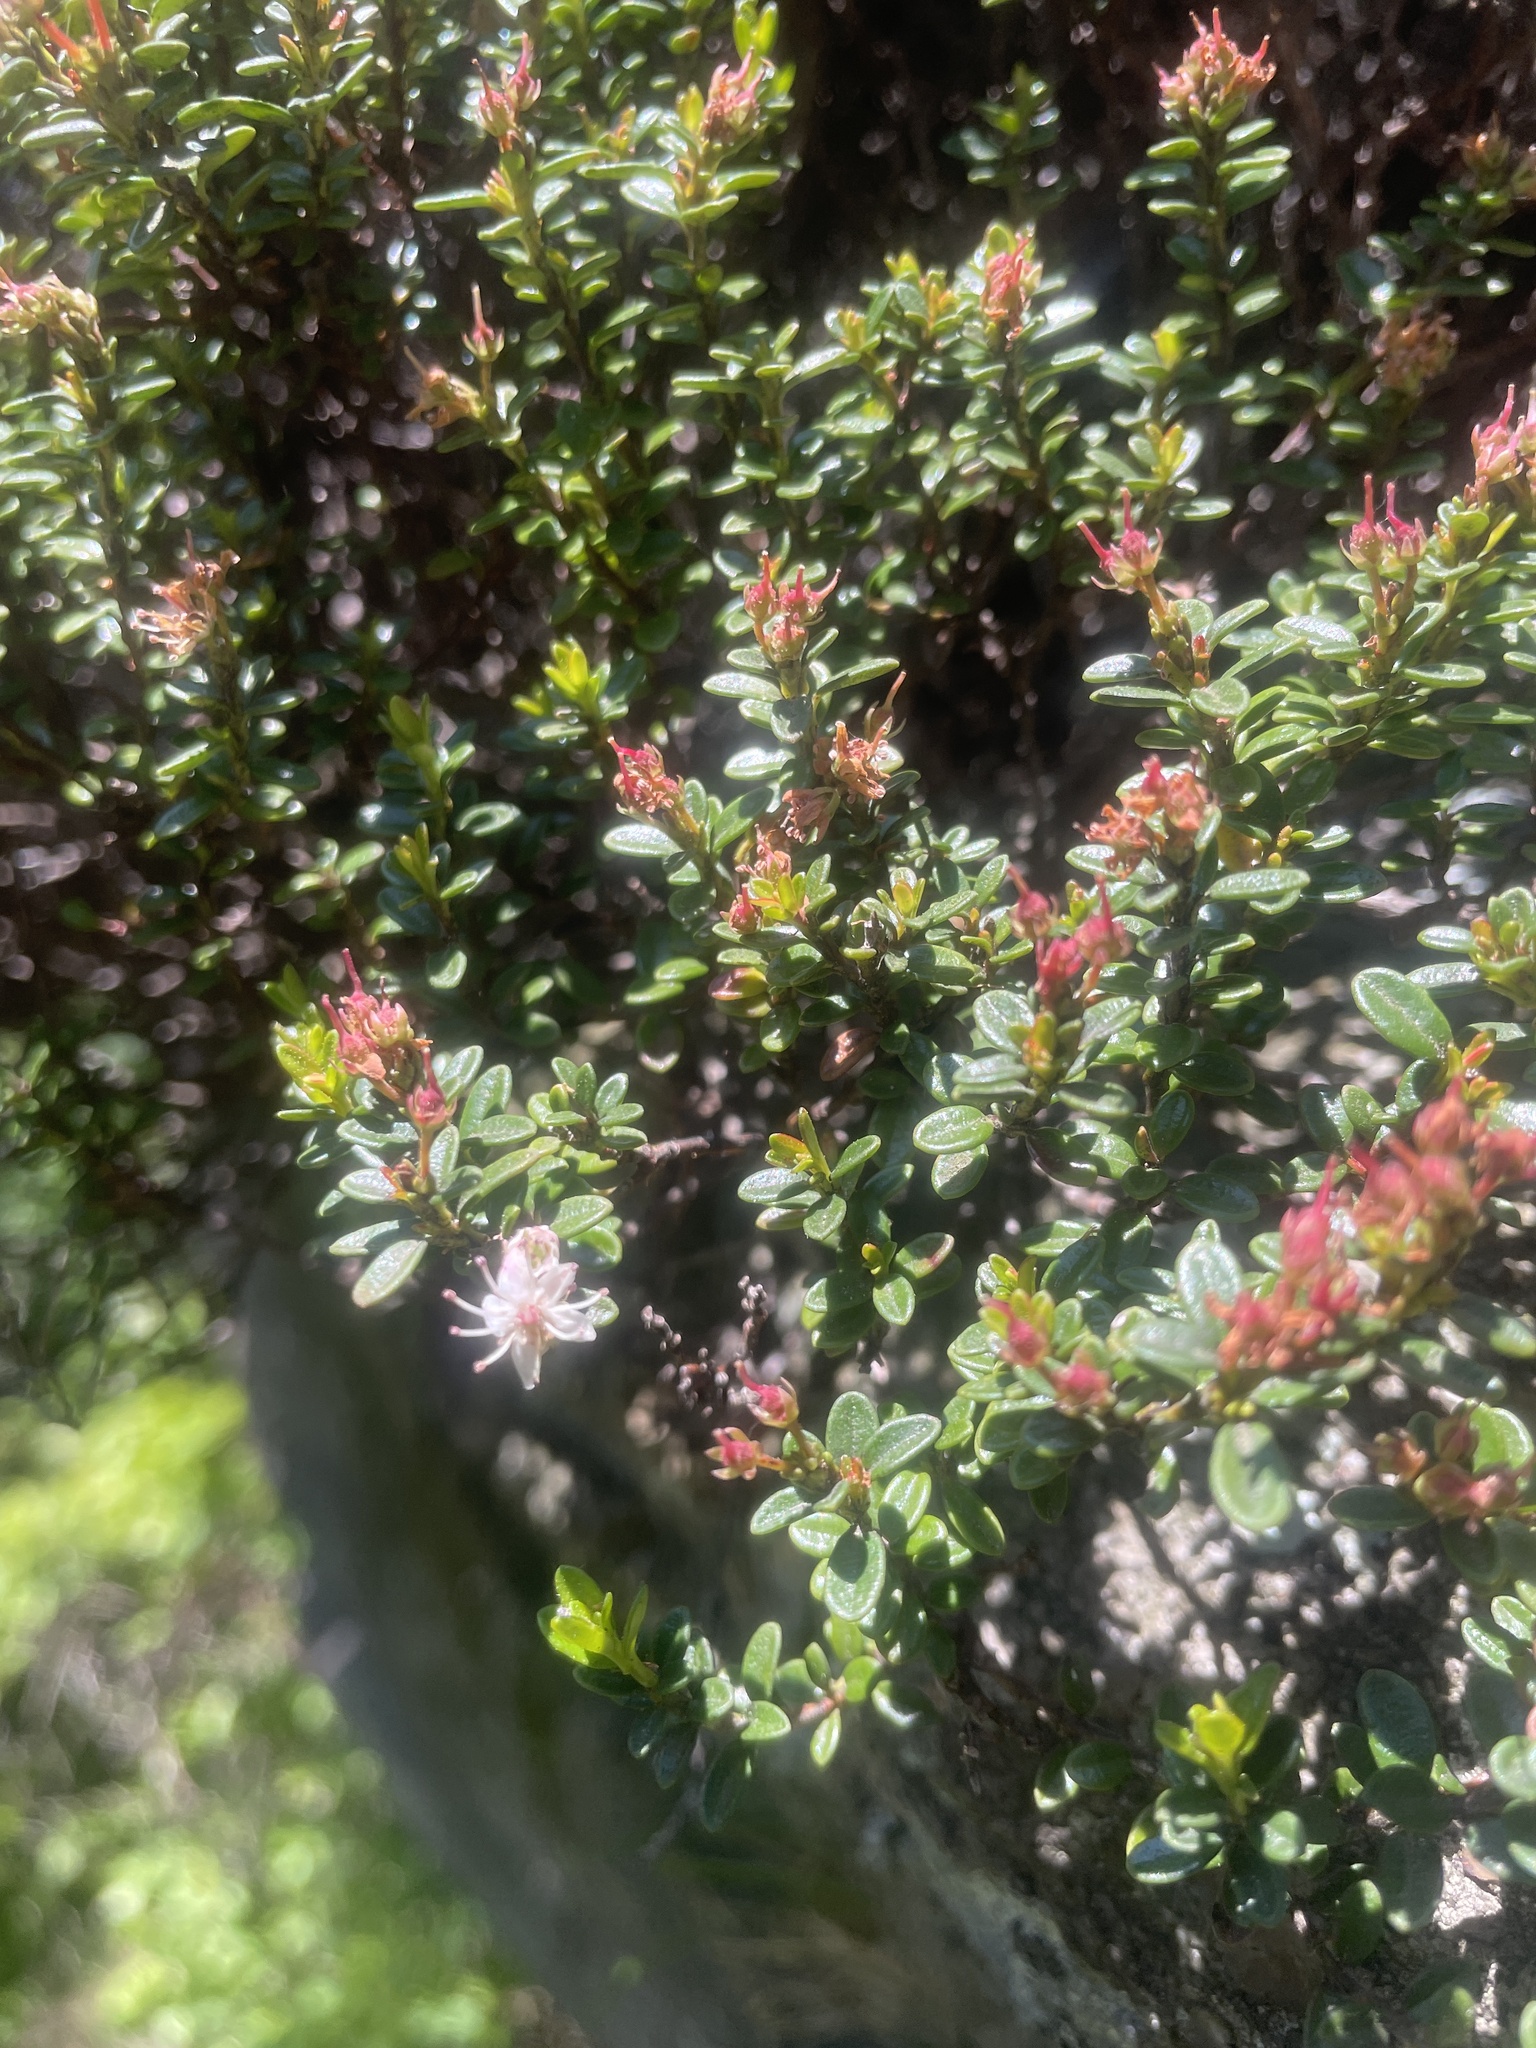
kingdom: Plantae
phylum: Tracheophyta
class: Magnoliopsida
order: Ericales
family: Ericaceae
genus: Kalmia
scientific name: Kalmia buxifolia
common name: Sandmyrtle
